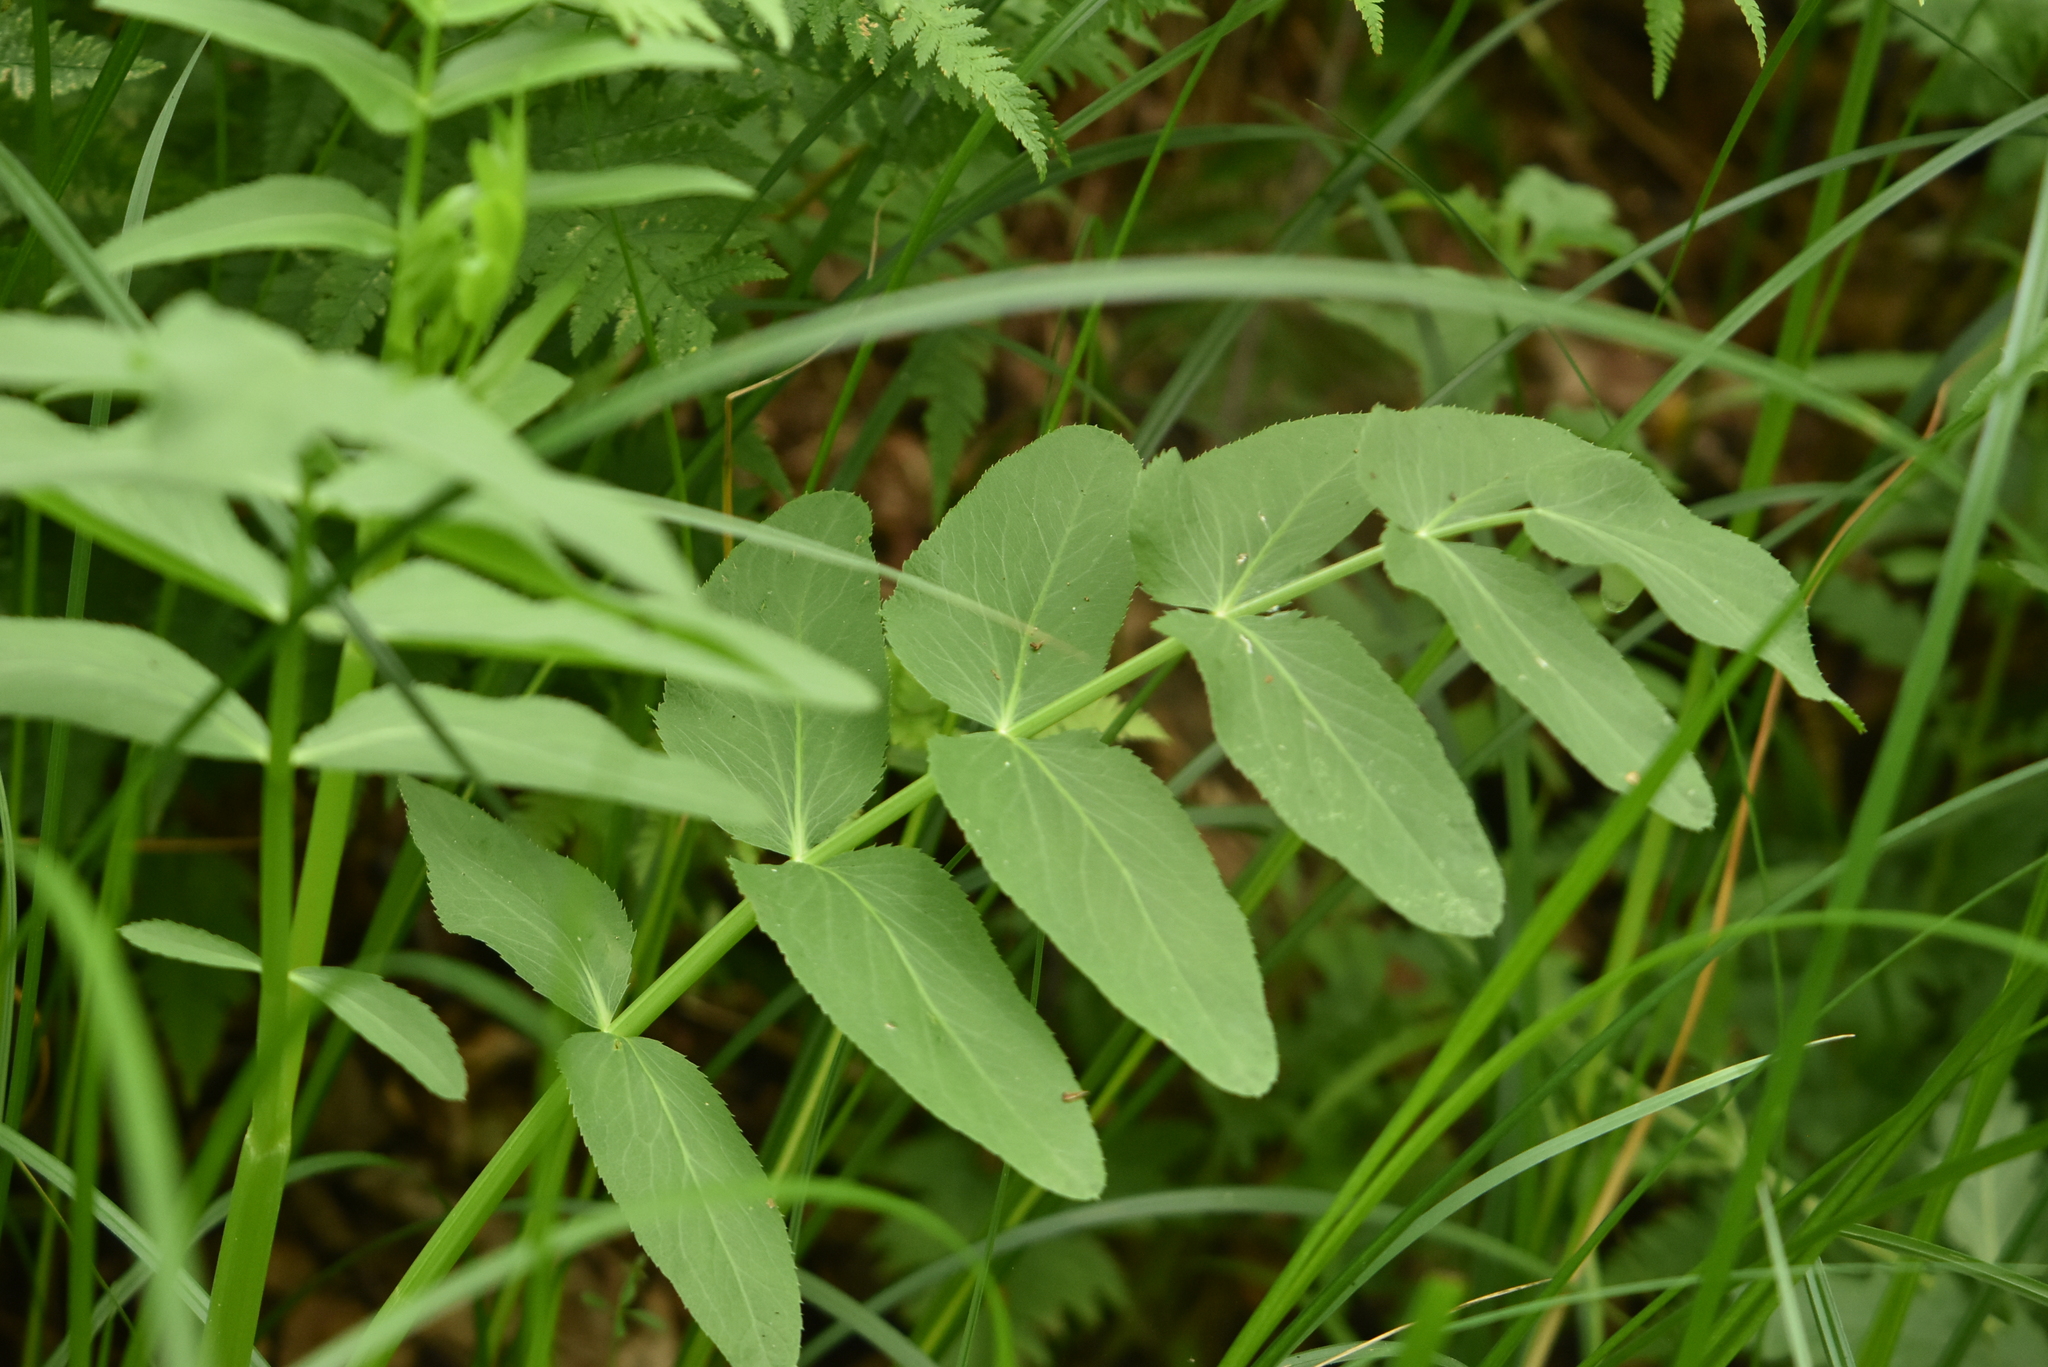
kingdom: Plantae
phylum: Tracheophyta
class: Magnoliopsida
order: Apiales
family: Apiaceae
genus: Sium
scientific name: Sium latifolium
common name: Greater water-parsnip
